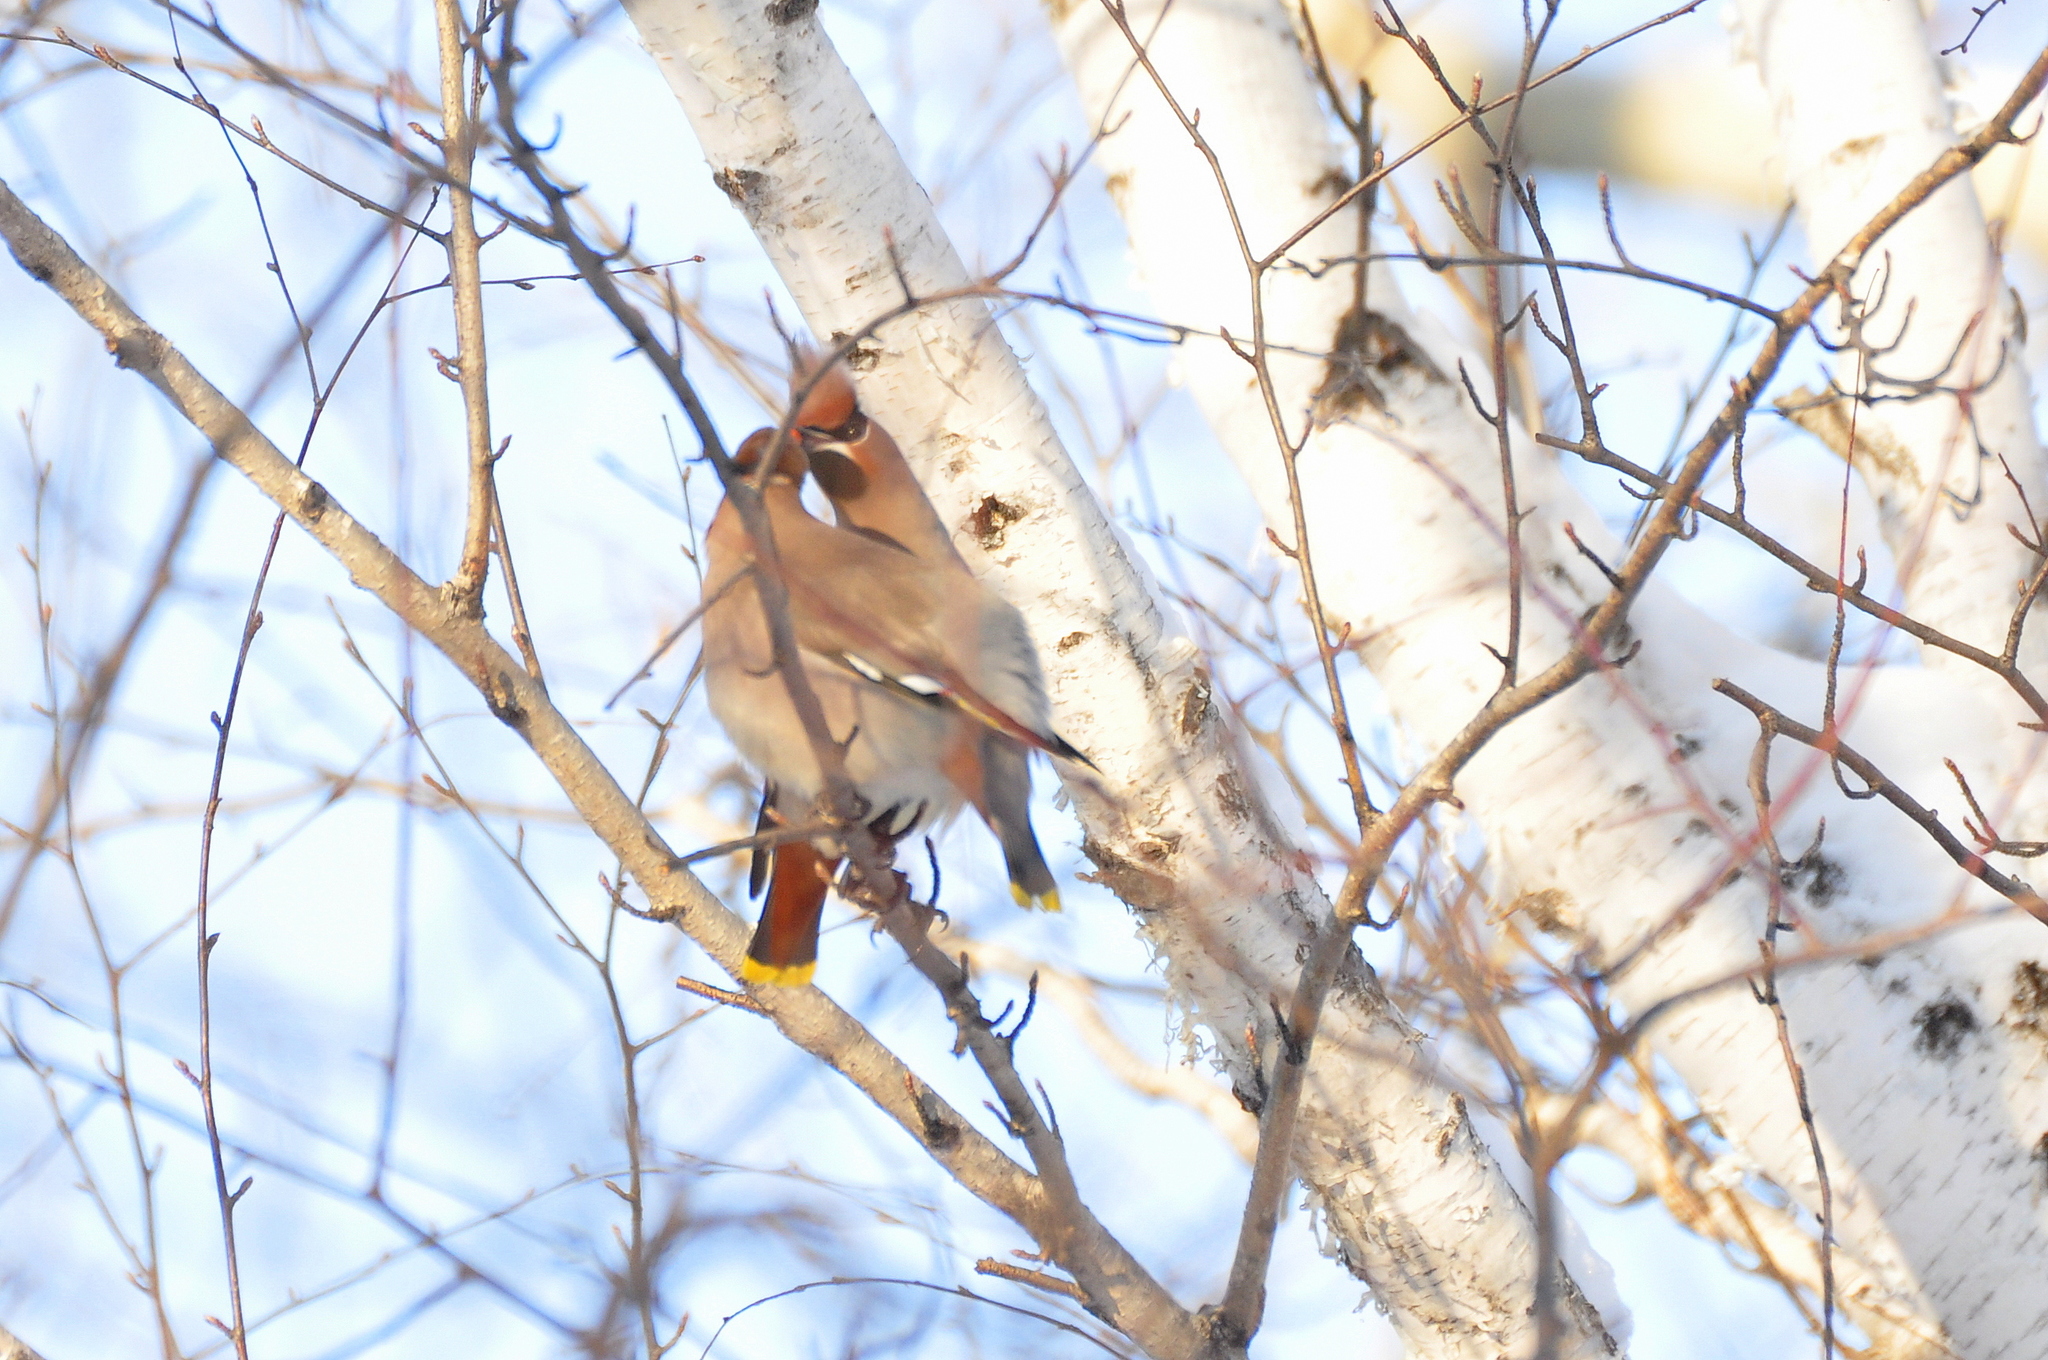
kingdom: Animalia
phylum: Chordata
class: Aves
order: Passeriformes
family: Bombycillidae
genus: Bombycilla
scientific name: Bombycilla garrulus
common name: Bohemian waxwing
